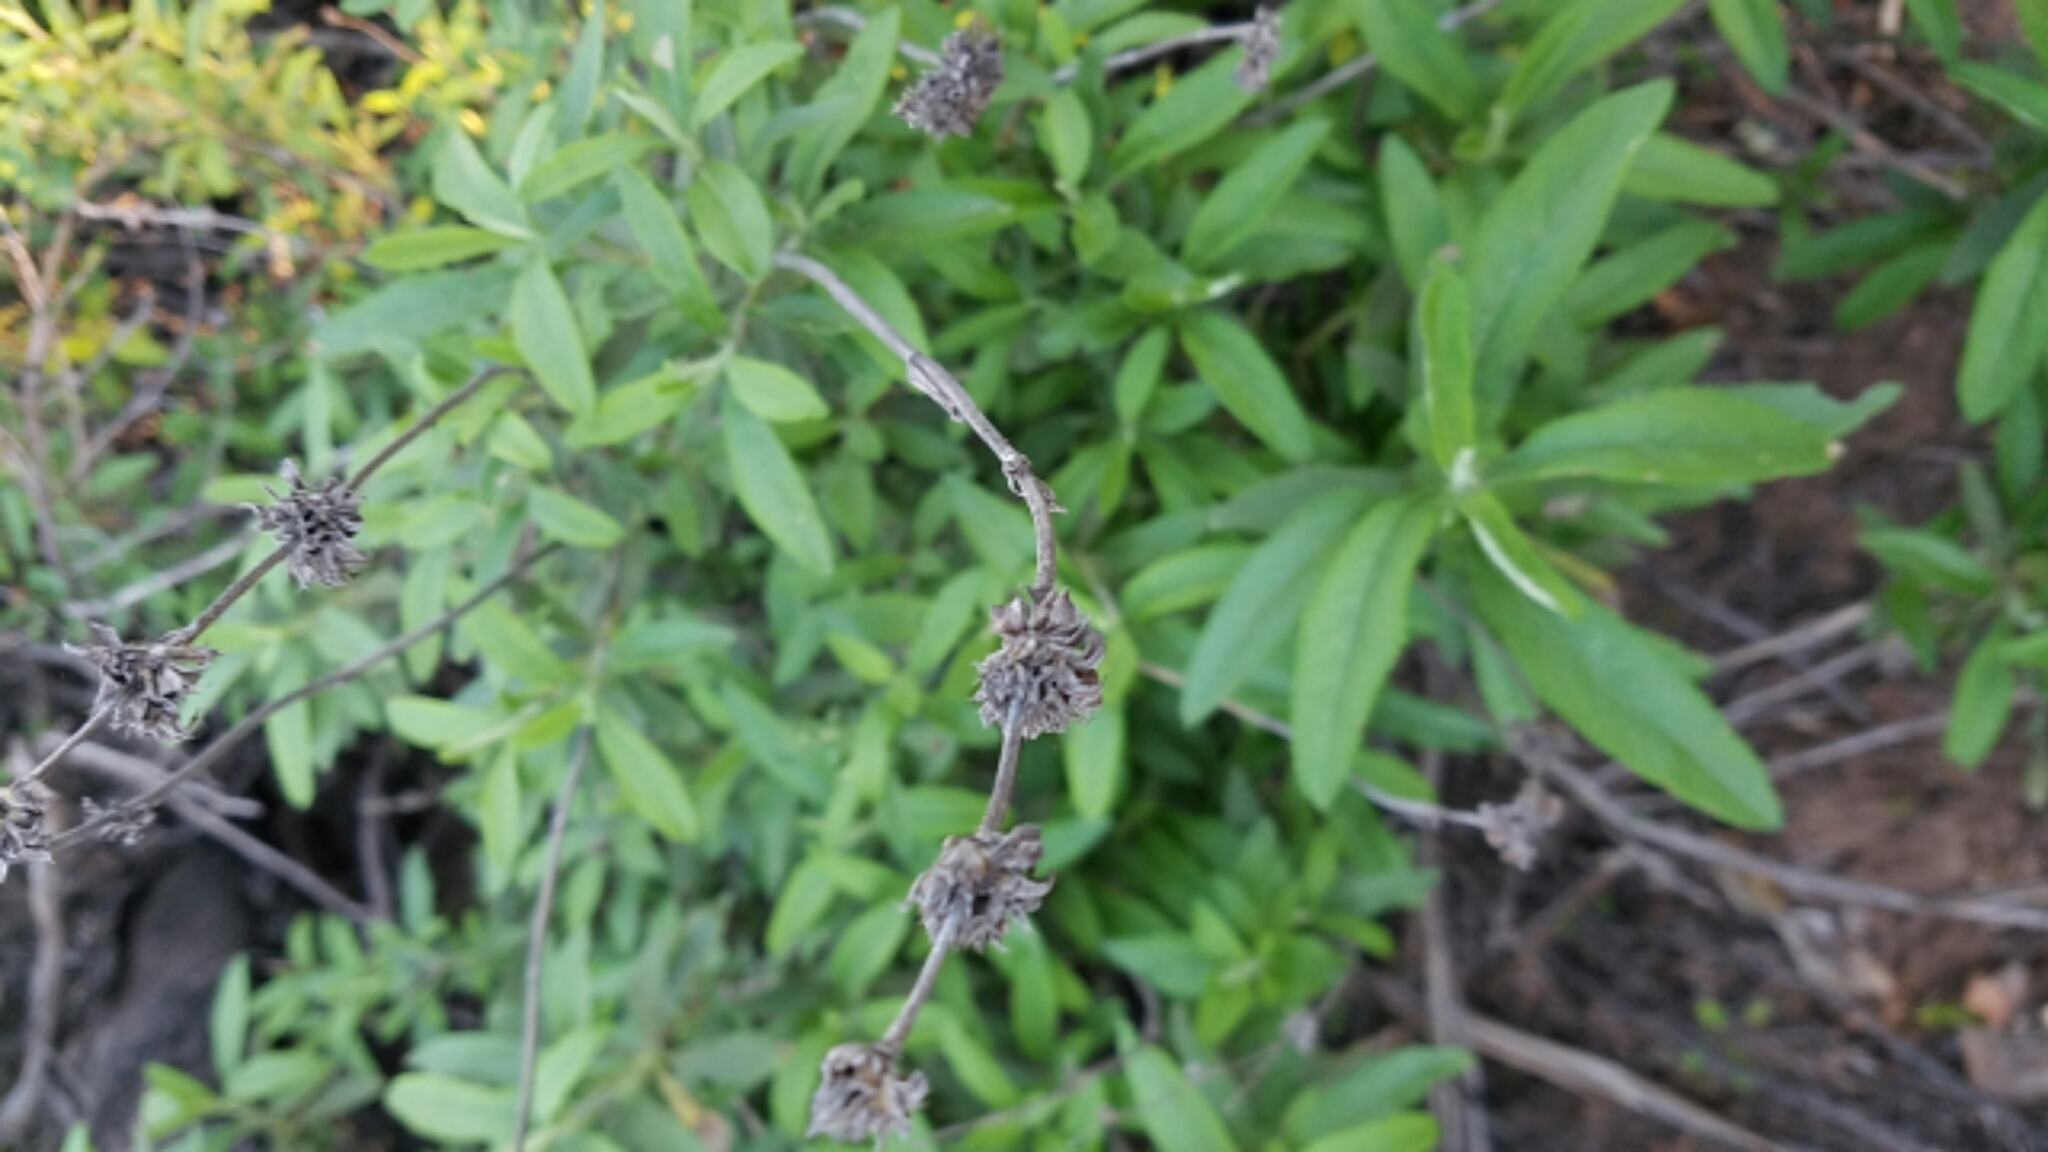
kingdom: Plantae
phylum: Tracheophyta
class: Magnoliopsida
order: Lamiales
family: Lamiaceae
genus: Salvia
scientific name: Salvia mellifera
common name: Black sage
